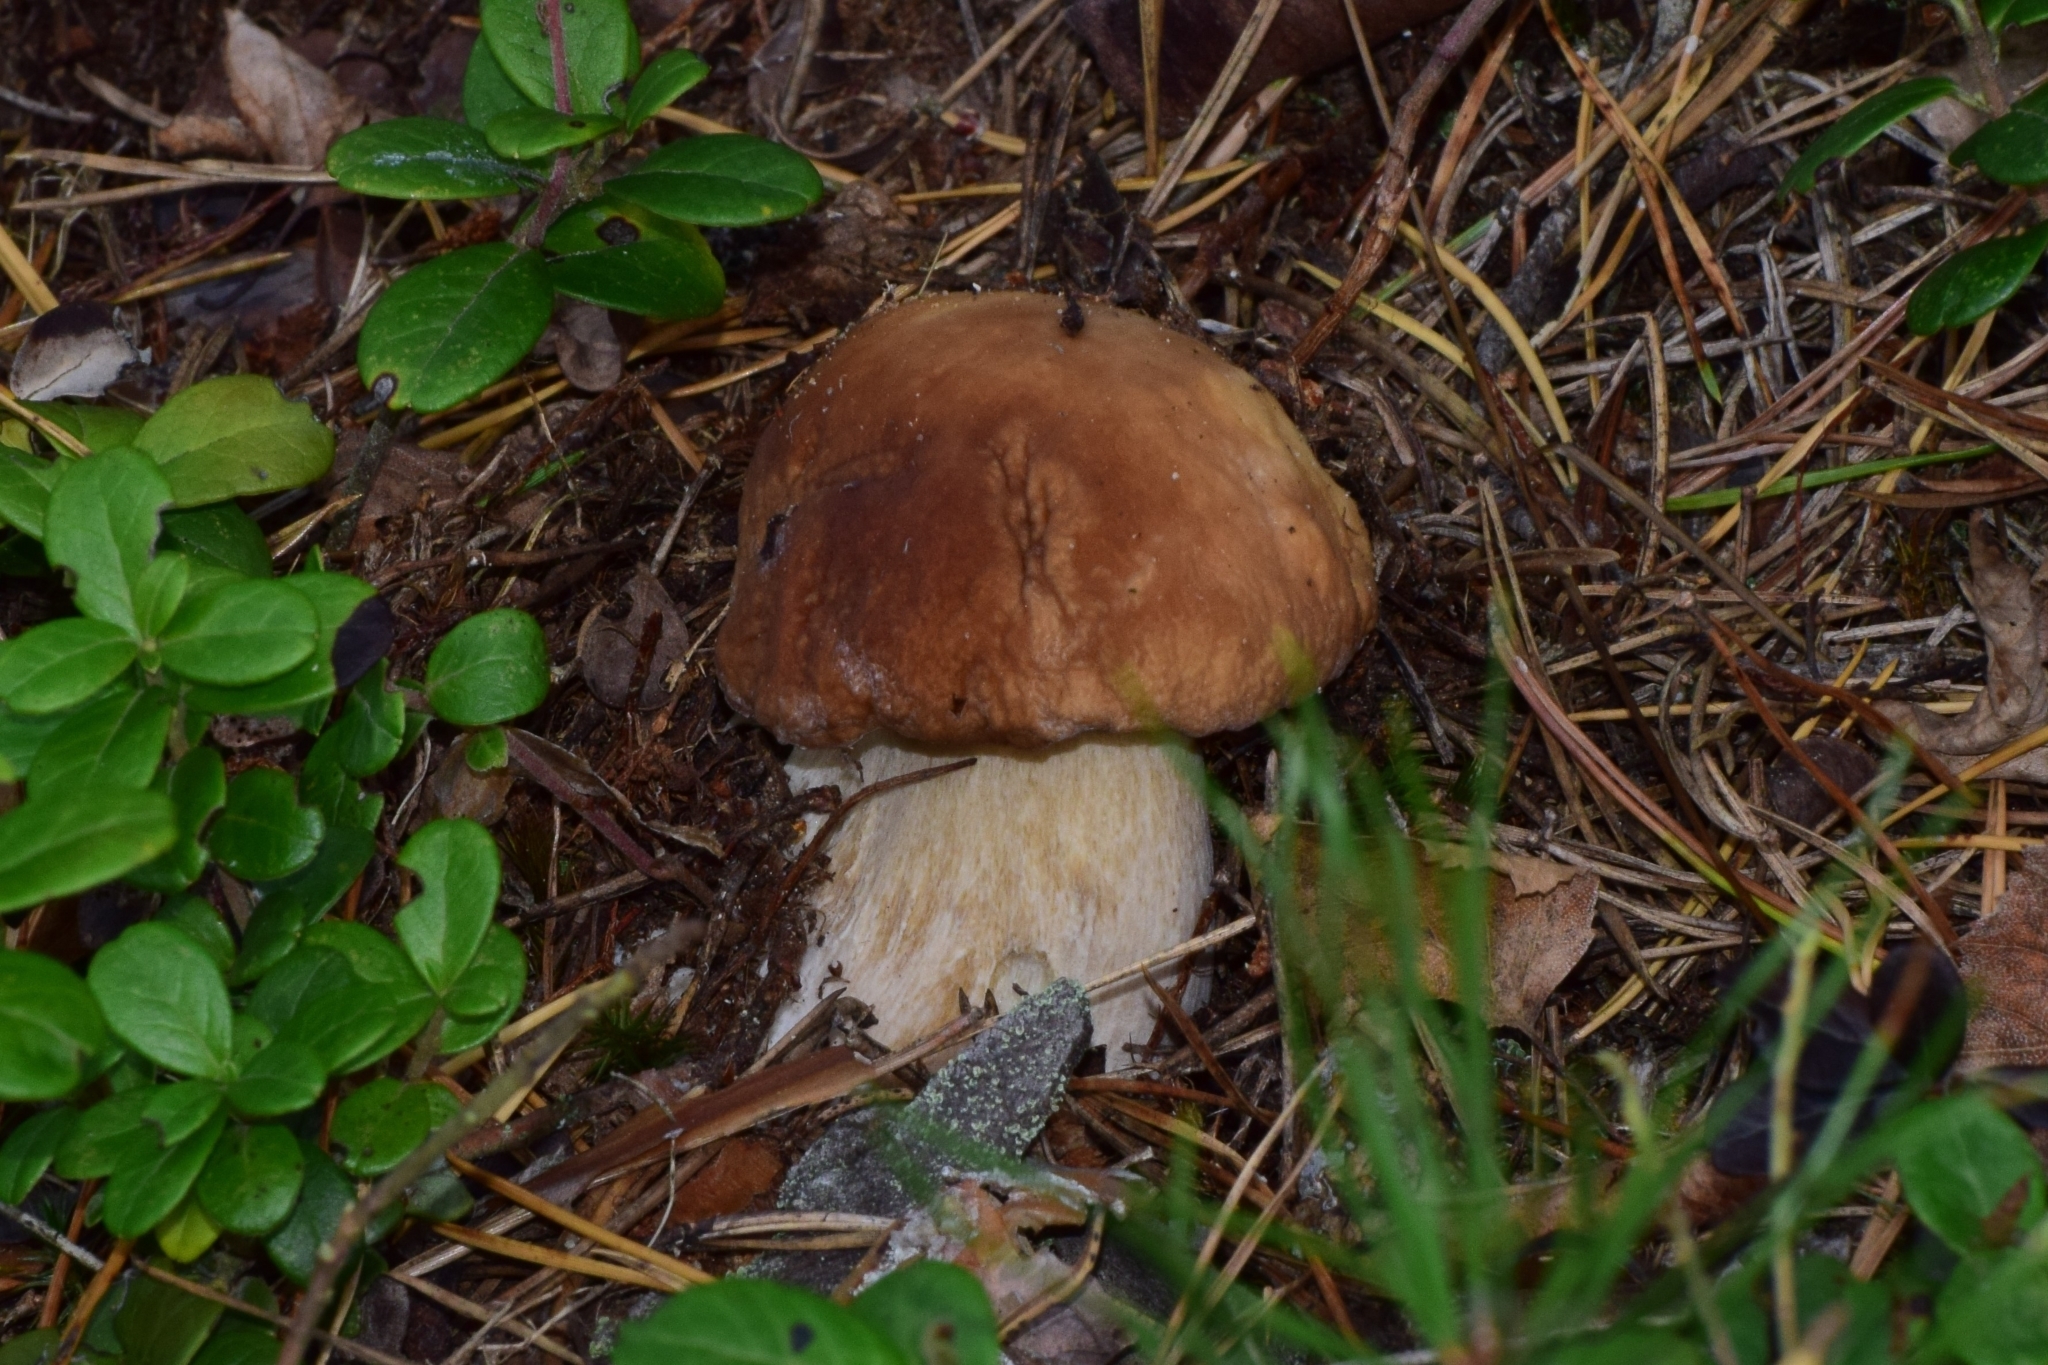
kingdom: Fungi
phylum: Basidiomycota
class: Agaricomycetes
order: Boletales
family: Boletaceae
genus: Boletus
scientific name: Boletus edulis
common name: Cep
